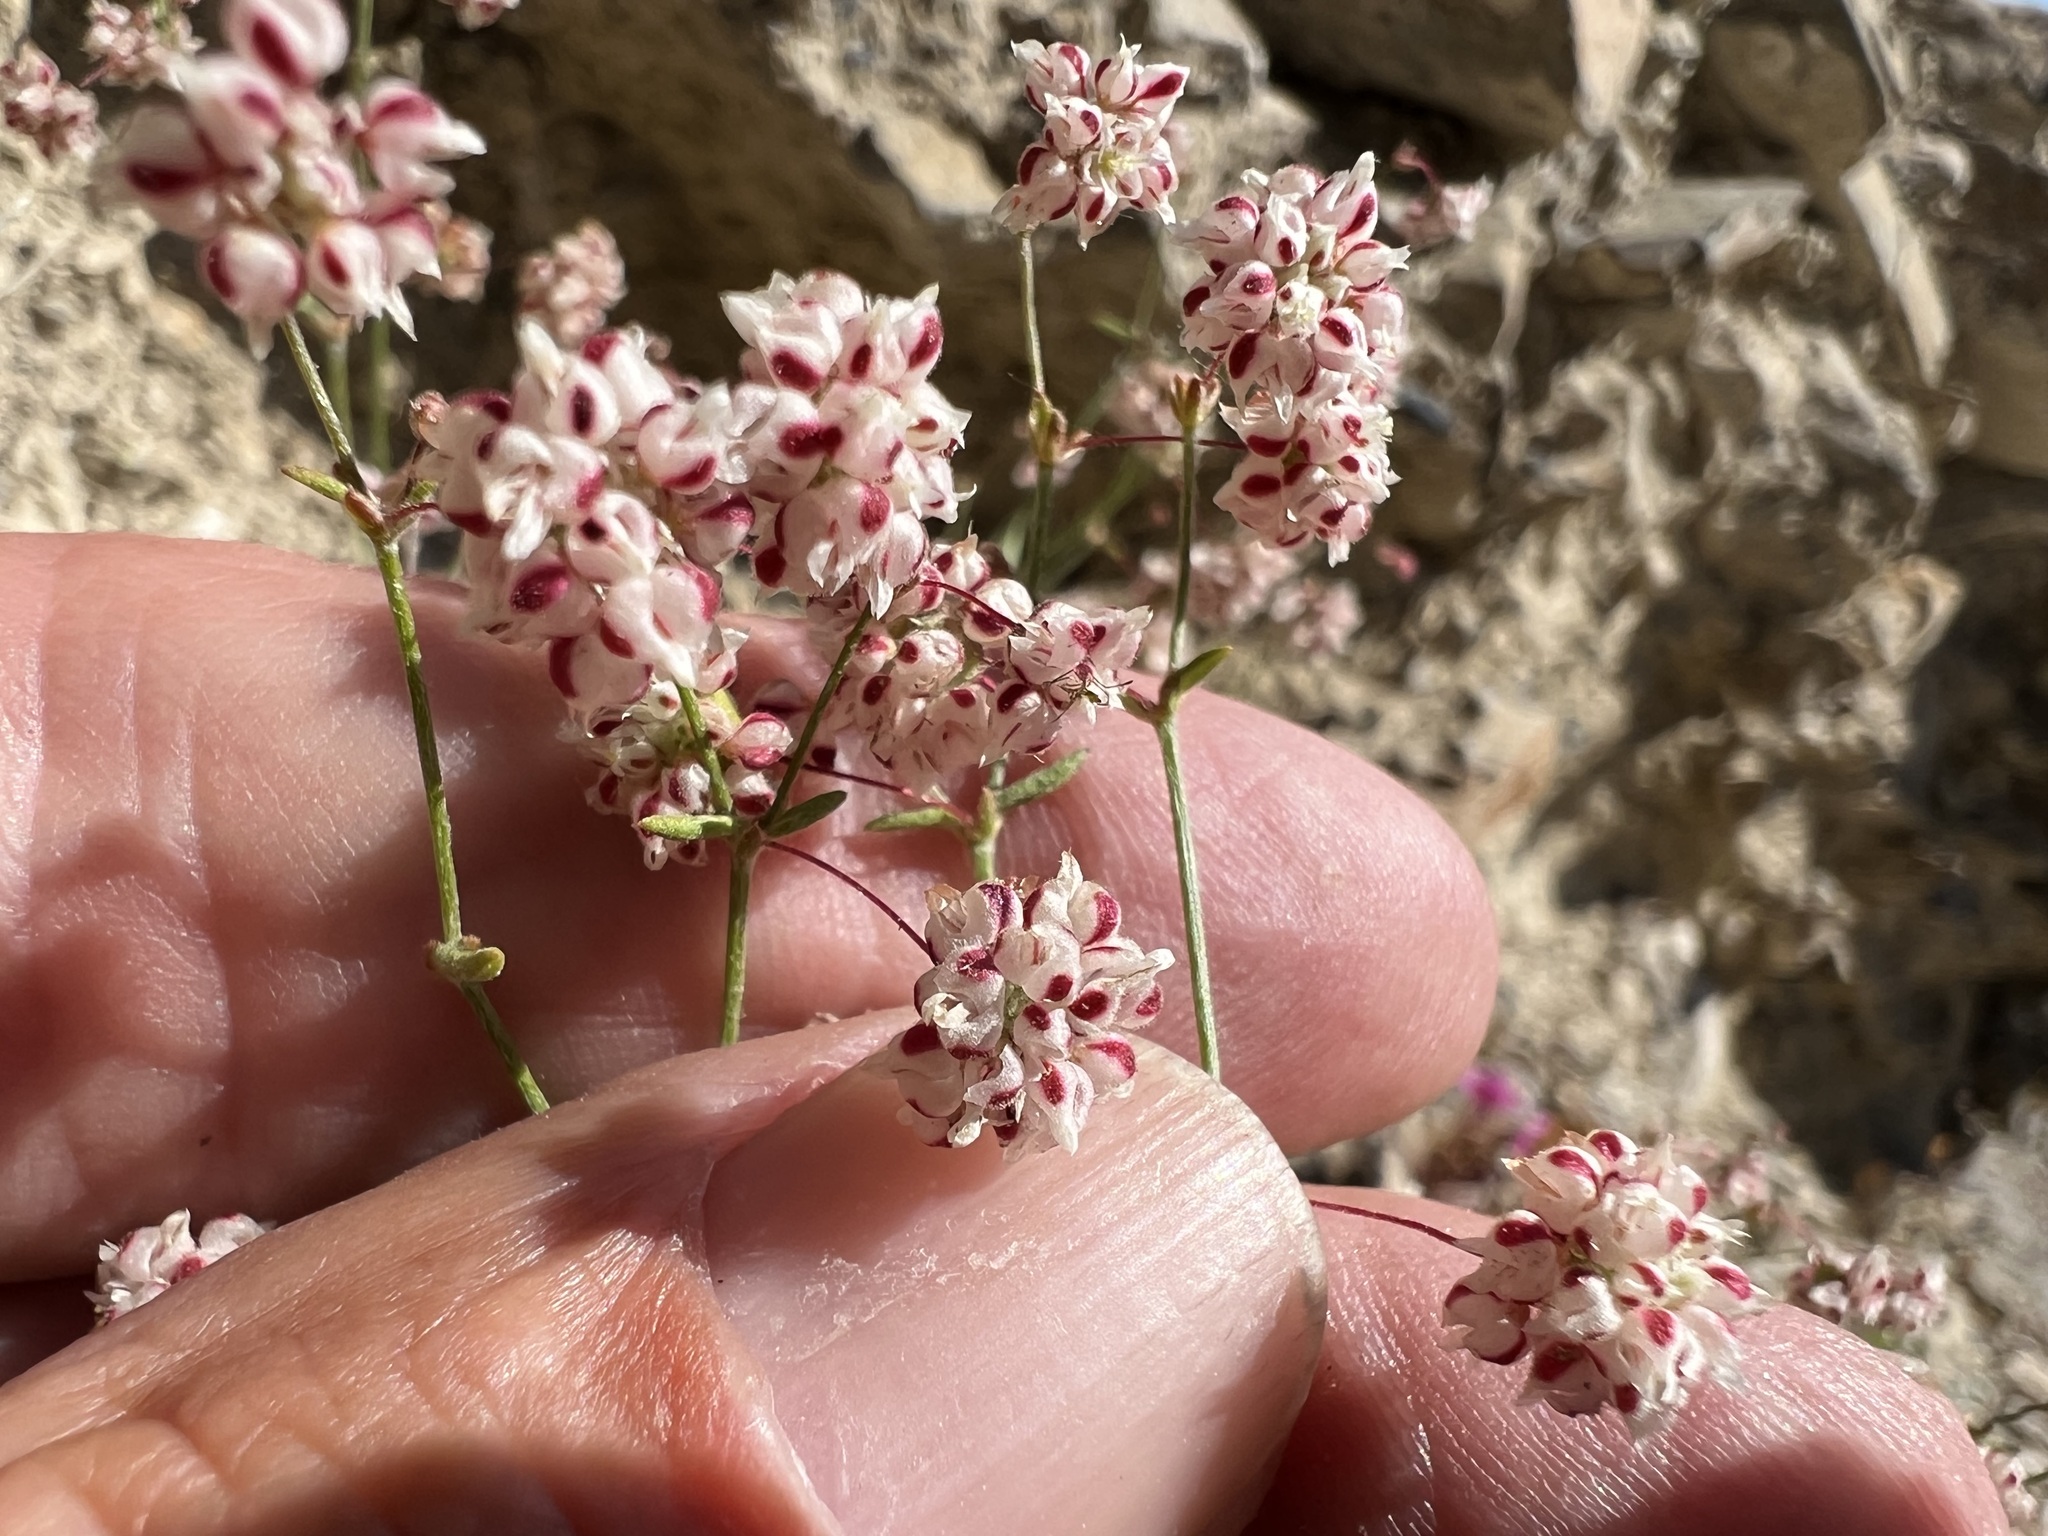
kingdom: Plantae
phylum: Tracheophyta
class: Magnoliopsida
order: Caryophyllales
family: Polygonaceae
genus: Eriogonum
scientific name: Eriogonum maculatum
